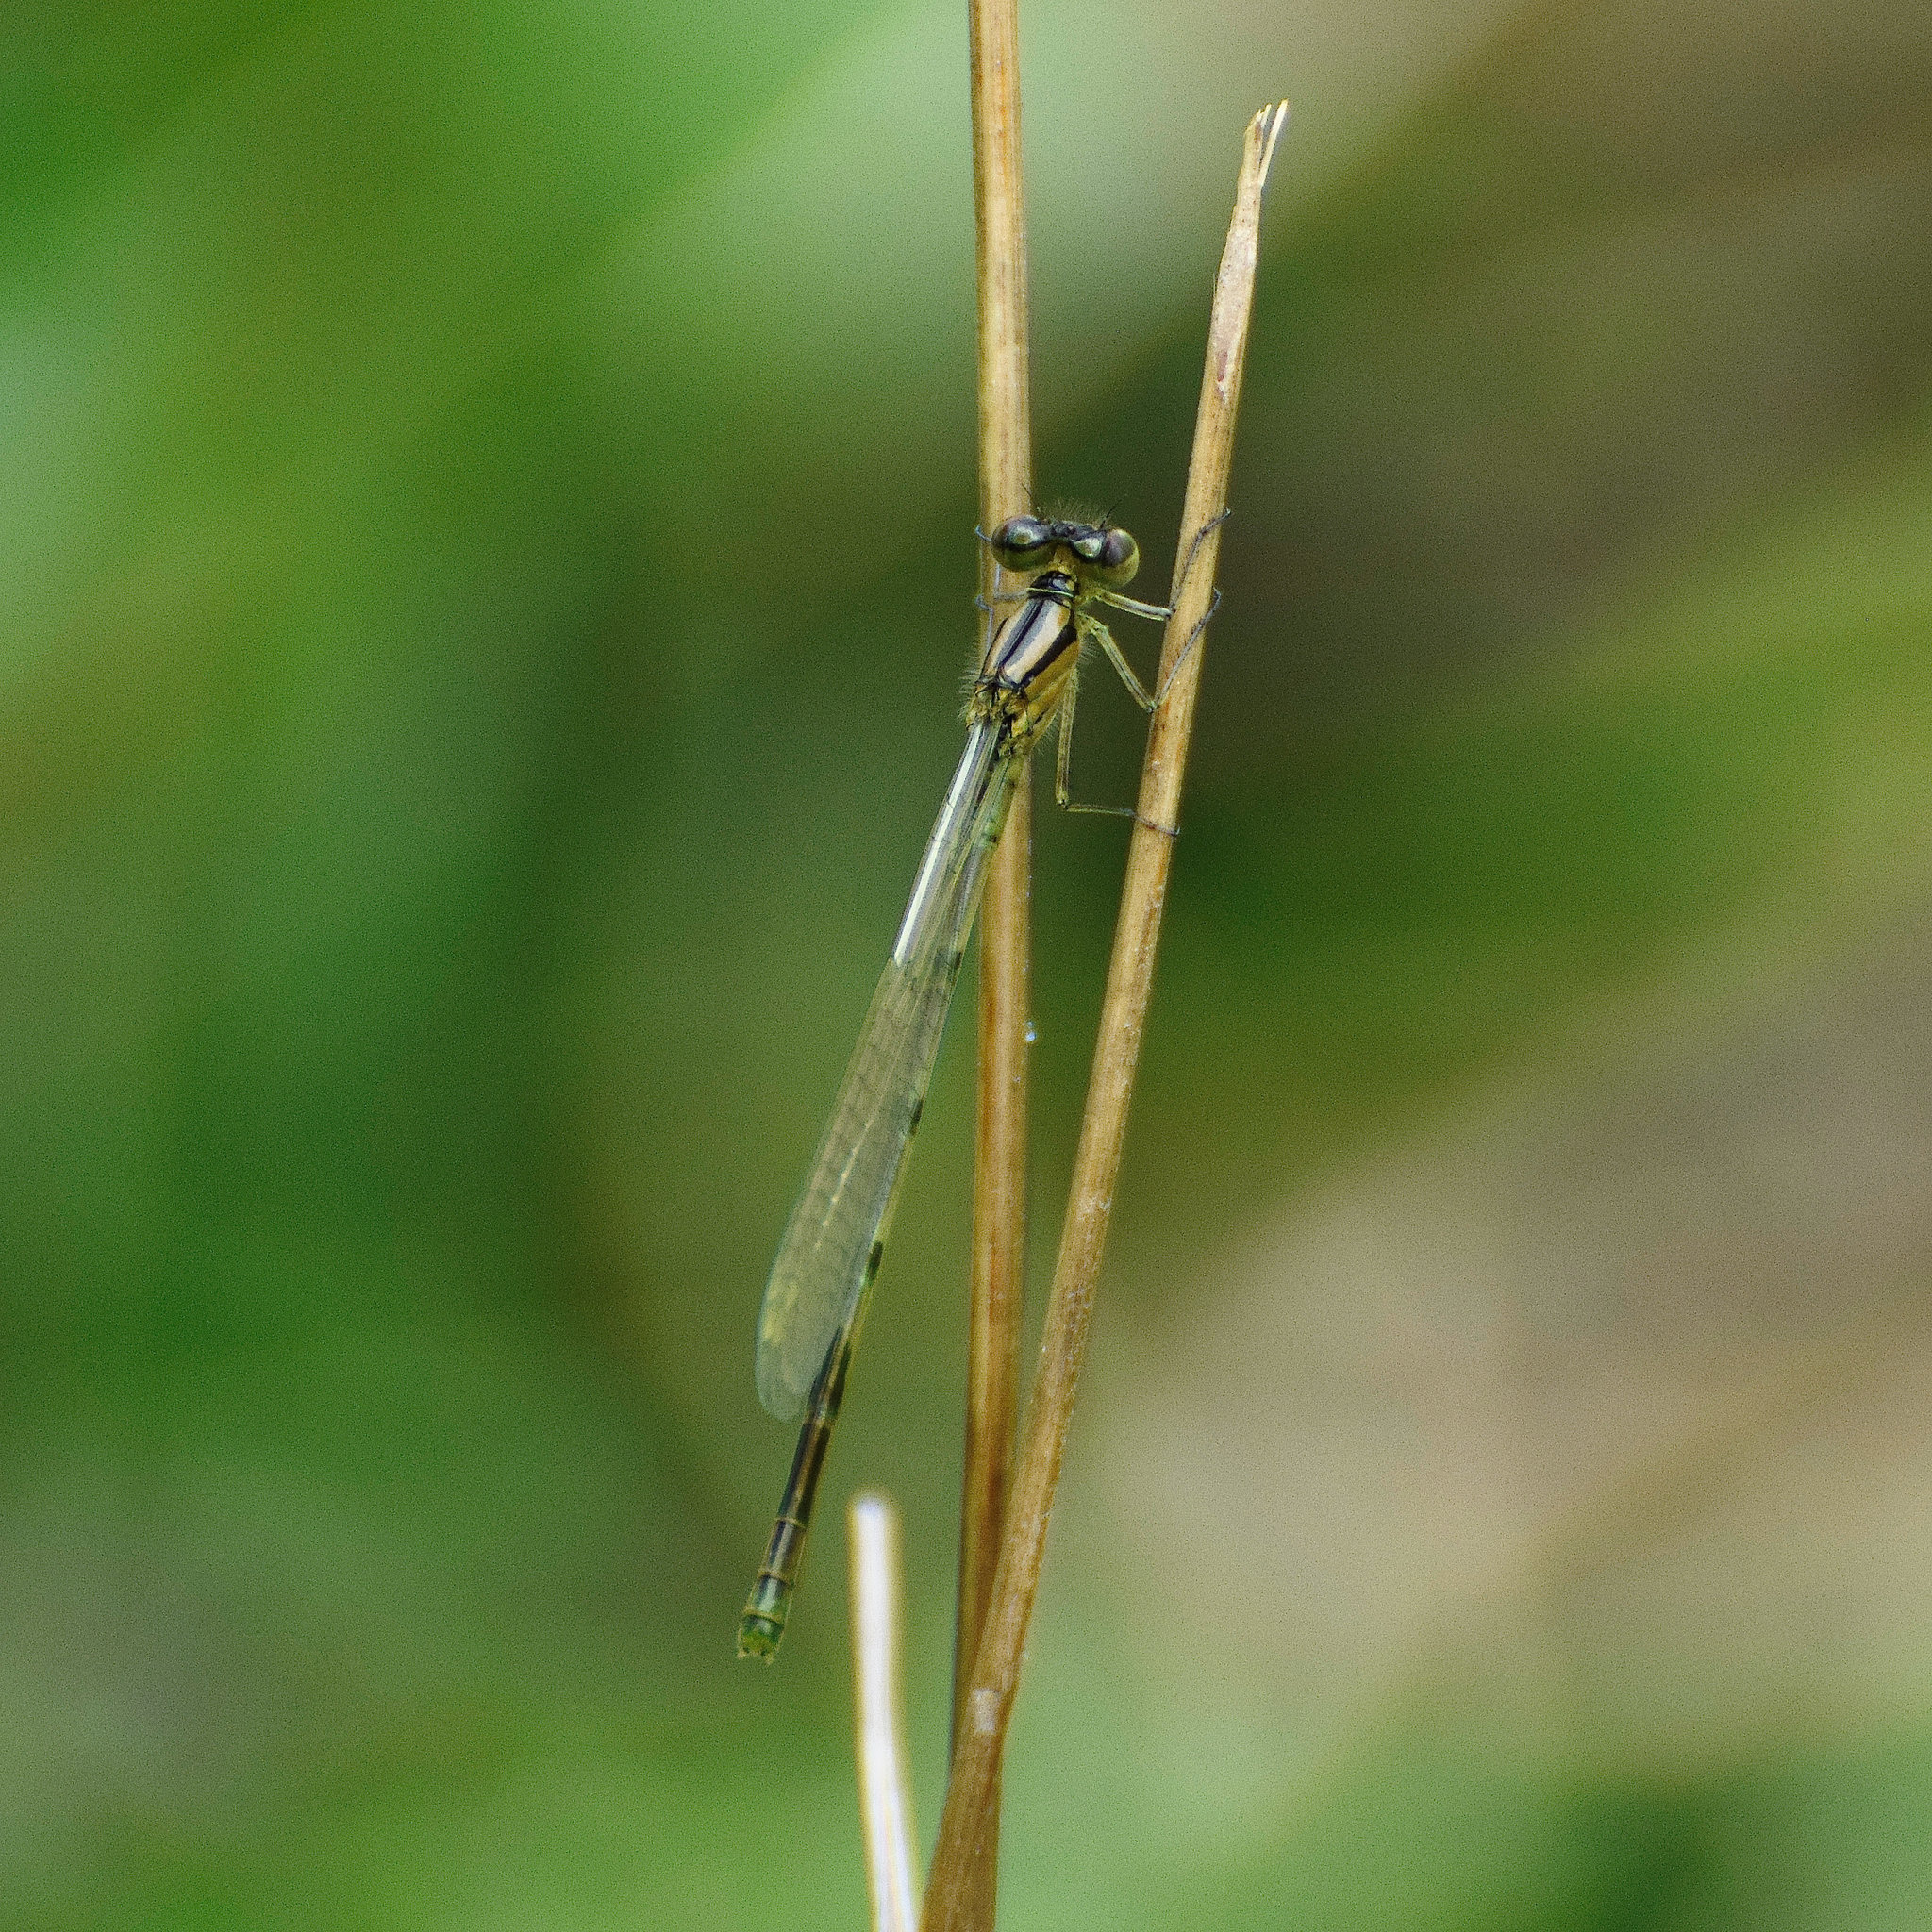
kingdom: Animalia
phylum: Arthropoda
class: Insecta
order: Odonata
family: Coenagrionidae
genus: Enallagma
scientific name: Enallagma cyathigerum
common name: Common blue damselfly
